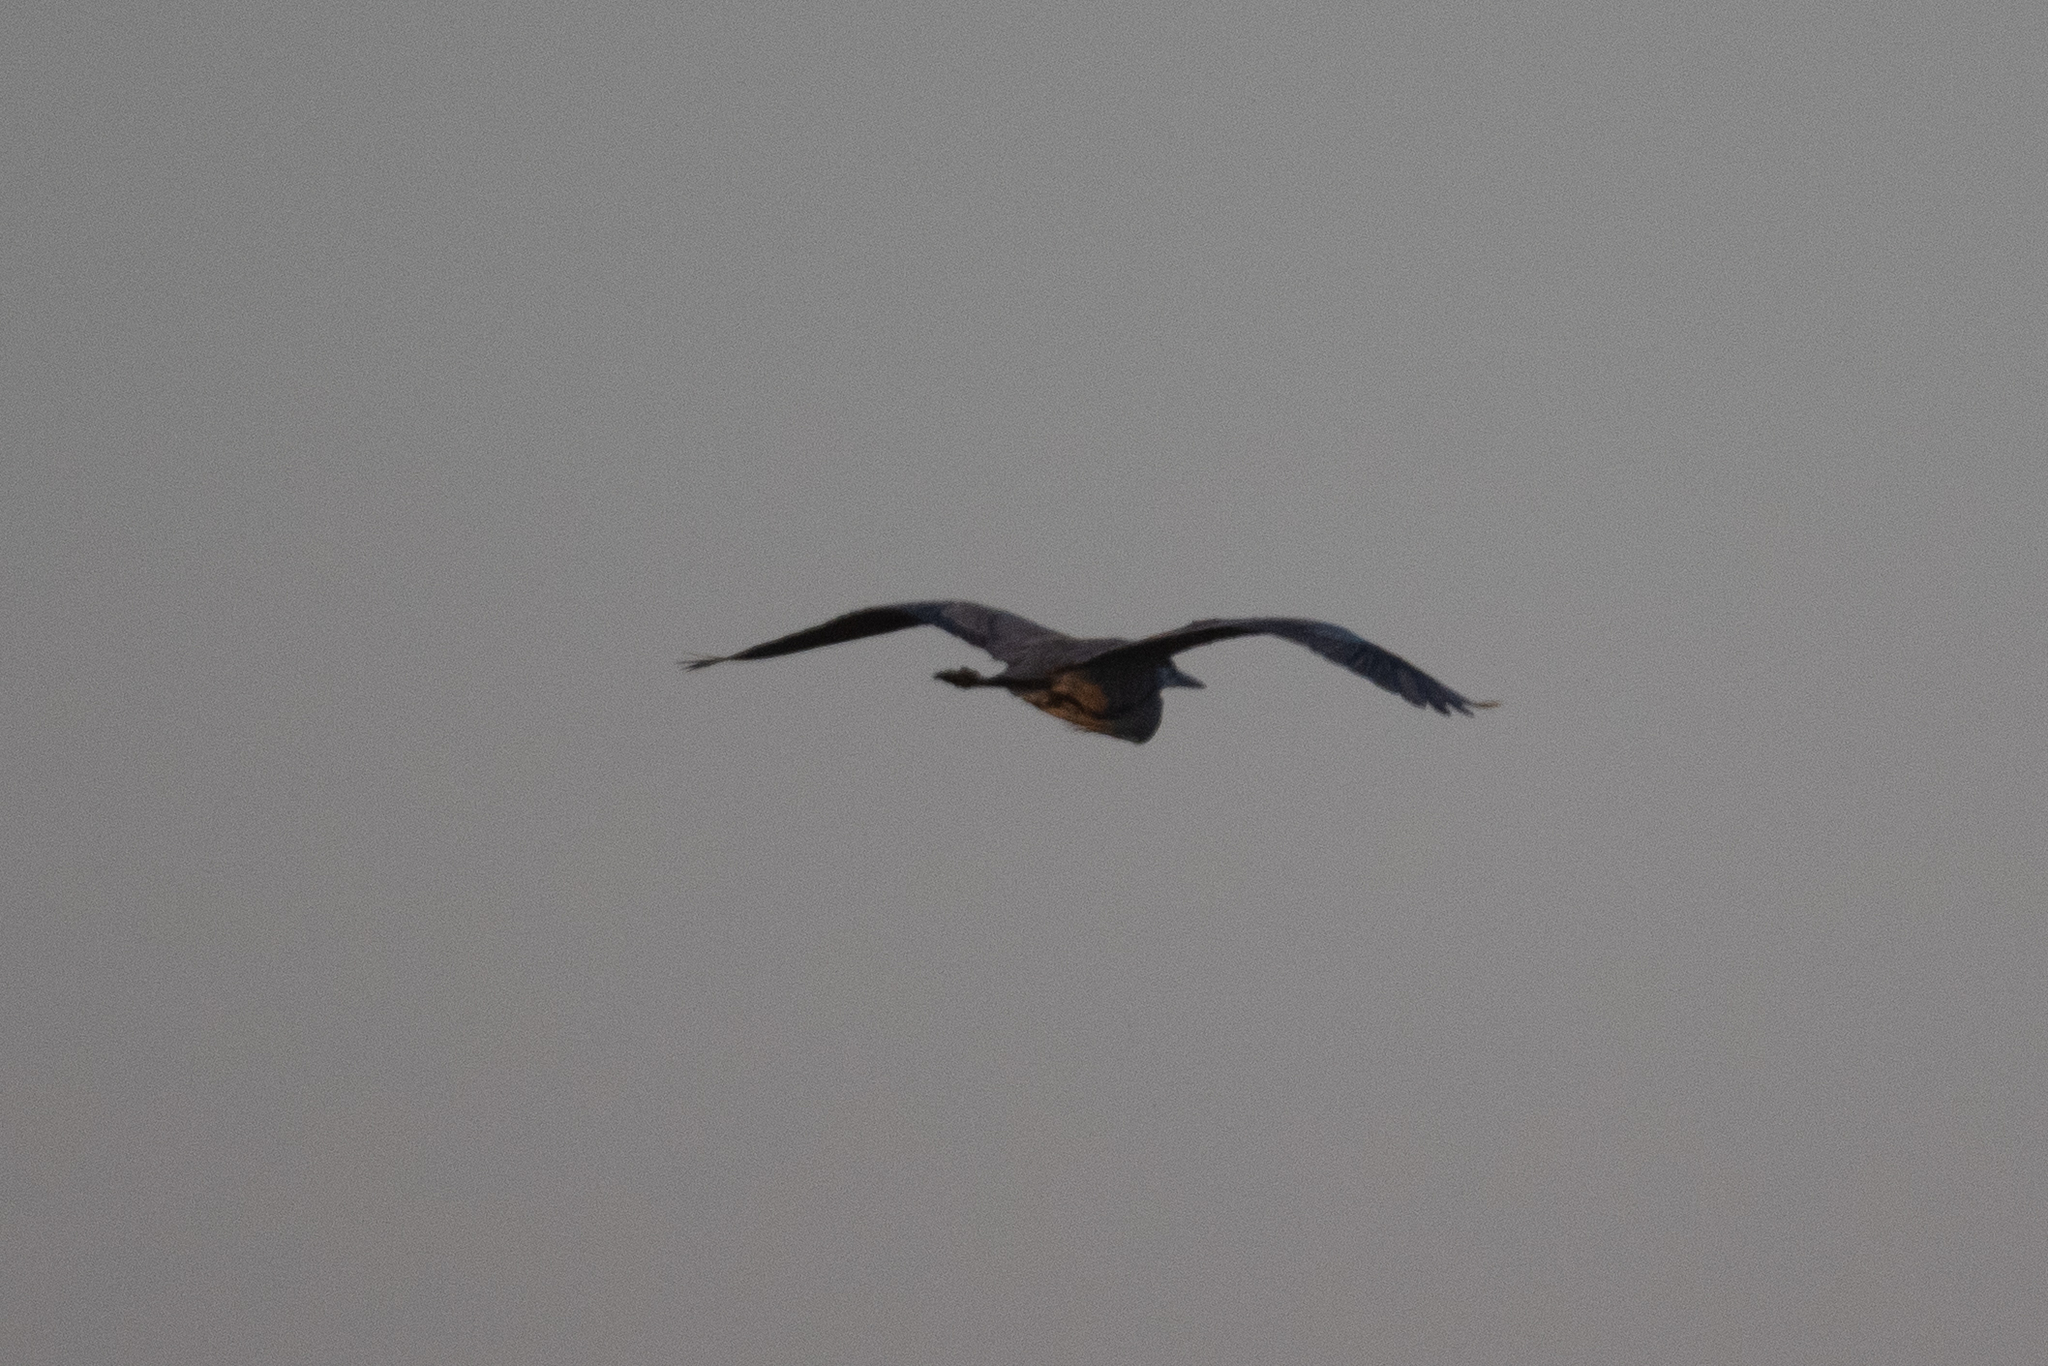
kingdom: Animalia
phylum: Chordata
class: Aves
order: Pelecaniformes
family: Ardeidae
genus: Ardea
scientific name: Ardea herodias
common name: Great blue heron
